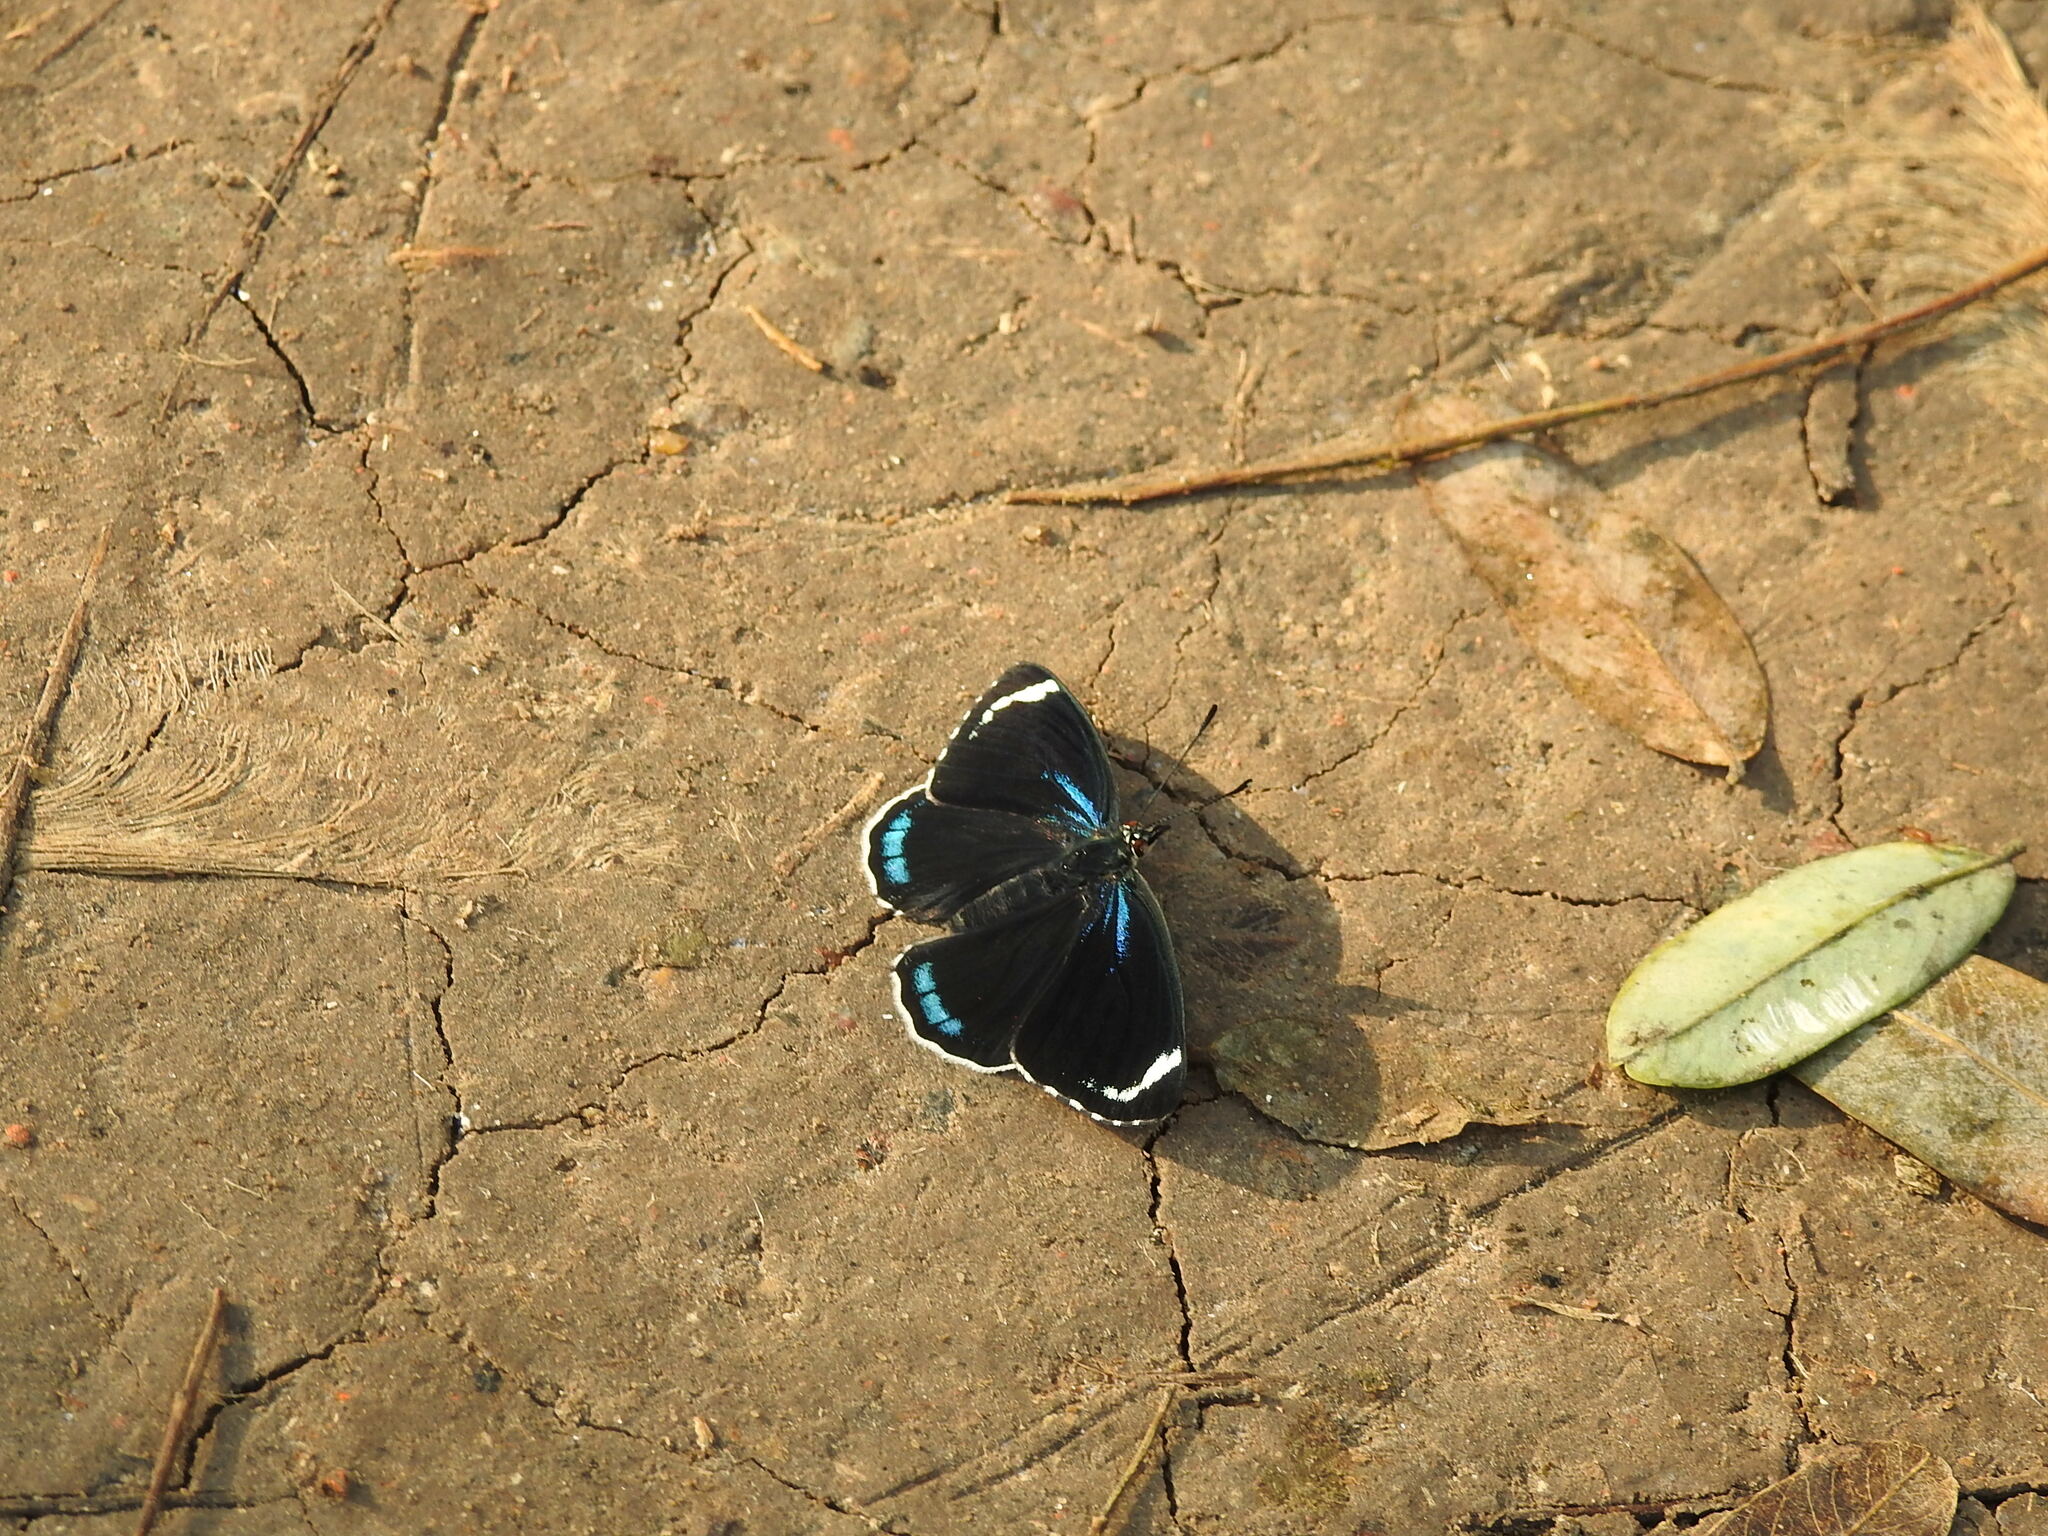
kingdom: Animalia
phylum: Arthropoda
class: Insecta
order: Lepidoptera
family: Nymphalidae
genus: Diaethria
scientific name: Diaethria candrena
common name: Number eighty
